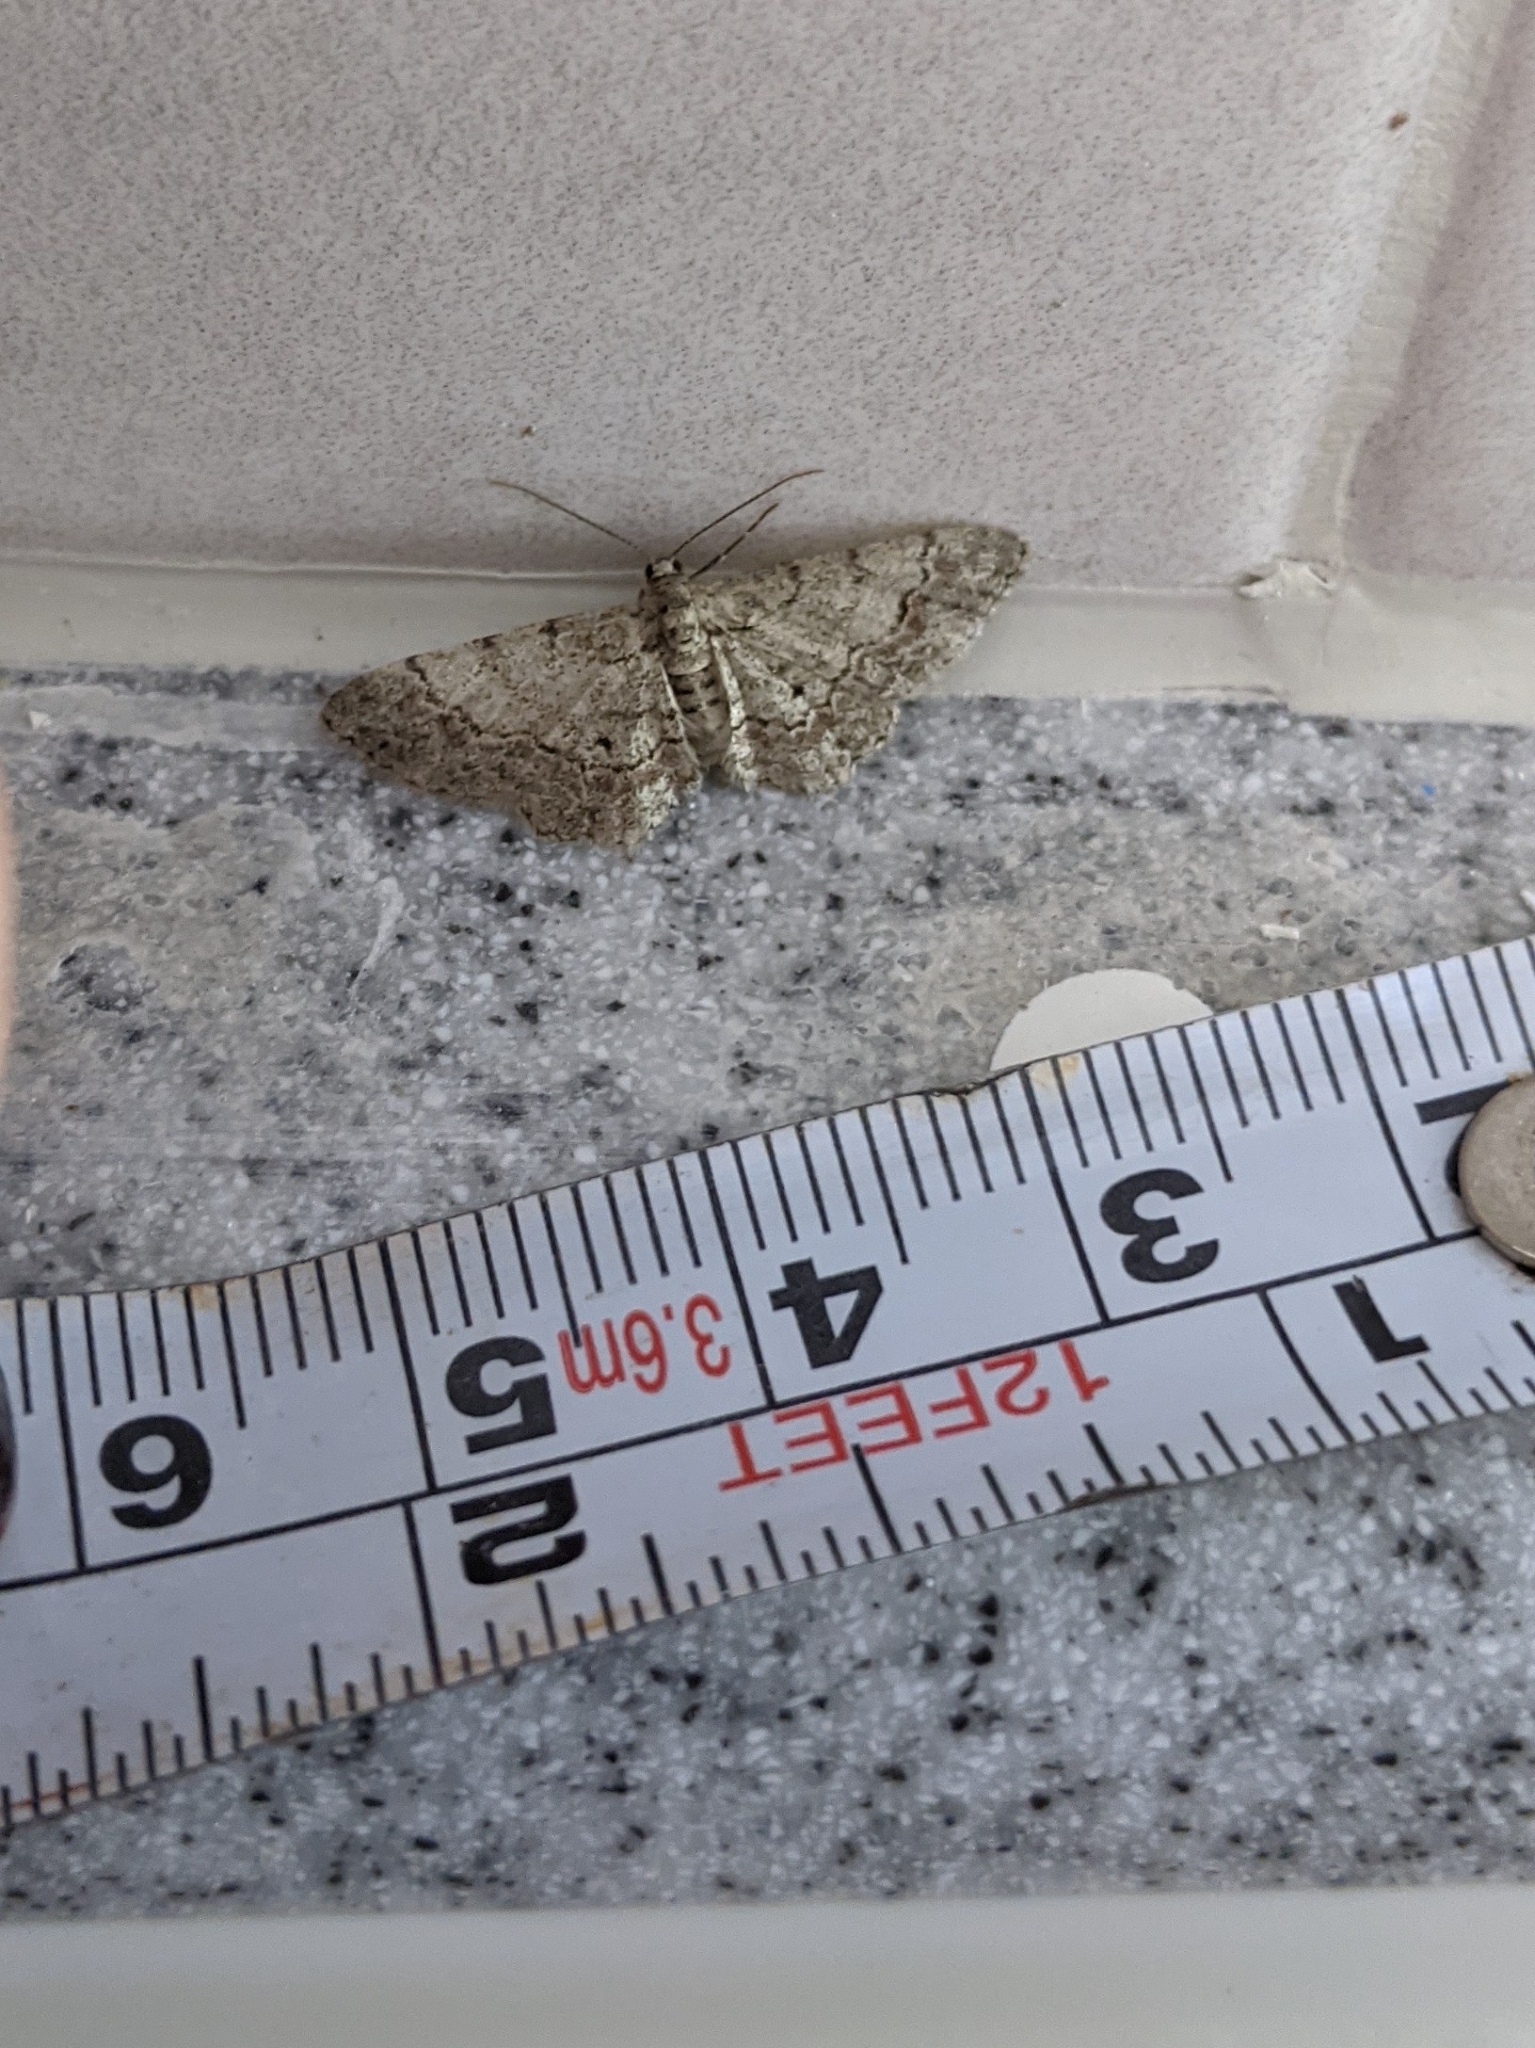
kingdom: Animalia
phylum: Arthropoda
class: Insecta
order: Lepidoptera
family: Geometridae
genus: Glenoides
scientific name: Glenoides texanaria
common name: Texas gray
